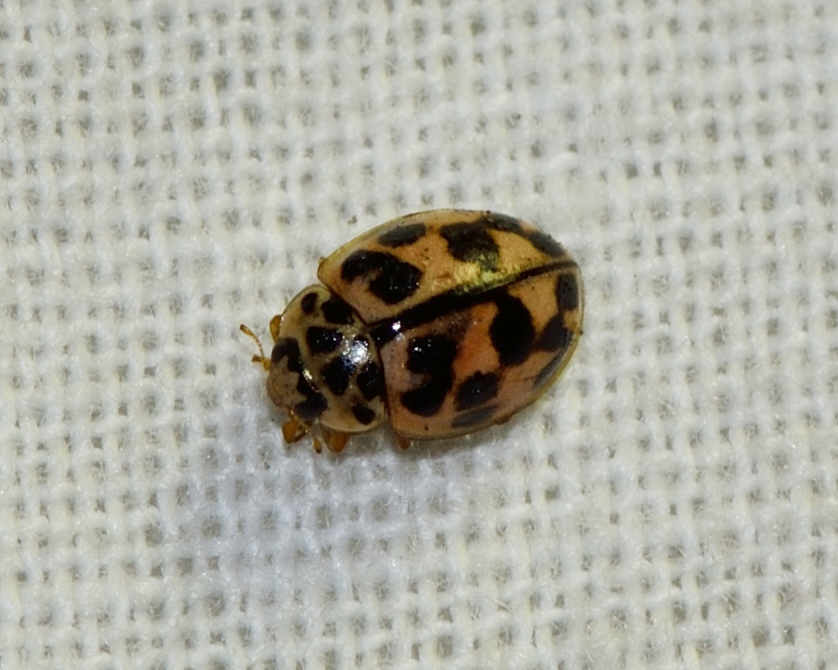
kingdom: Animalia
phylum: Arthropoda
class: Insecta
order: Coleoptera
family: Coccinellidae
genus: Oenopia
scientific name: Oenopia conglobata
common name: Ladybird beetle
